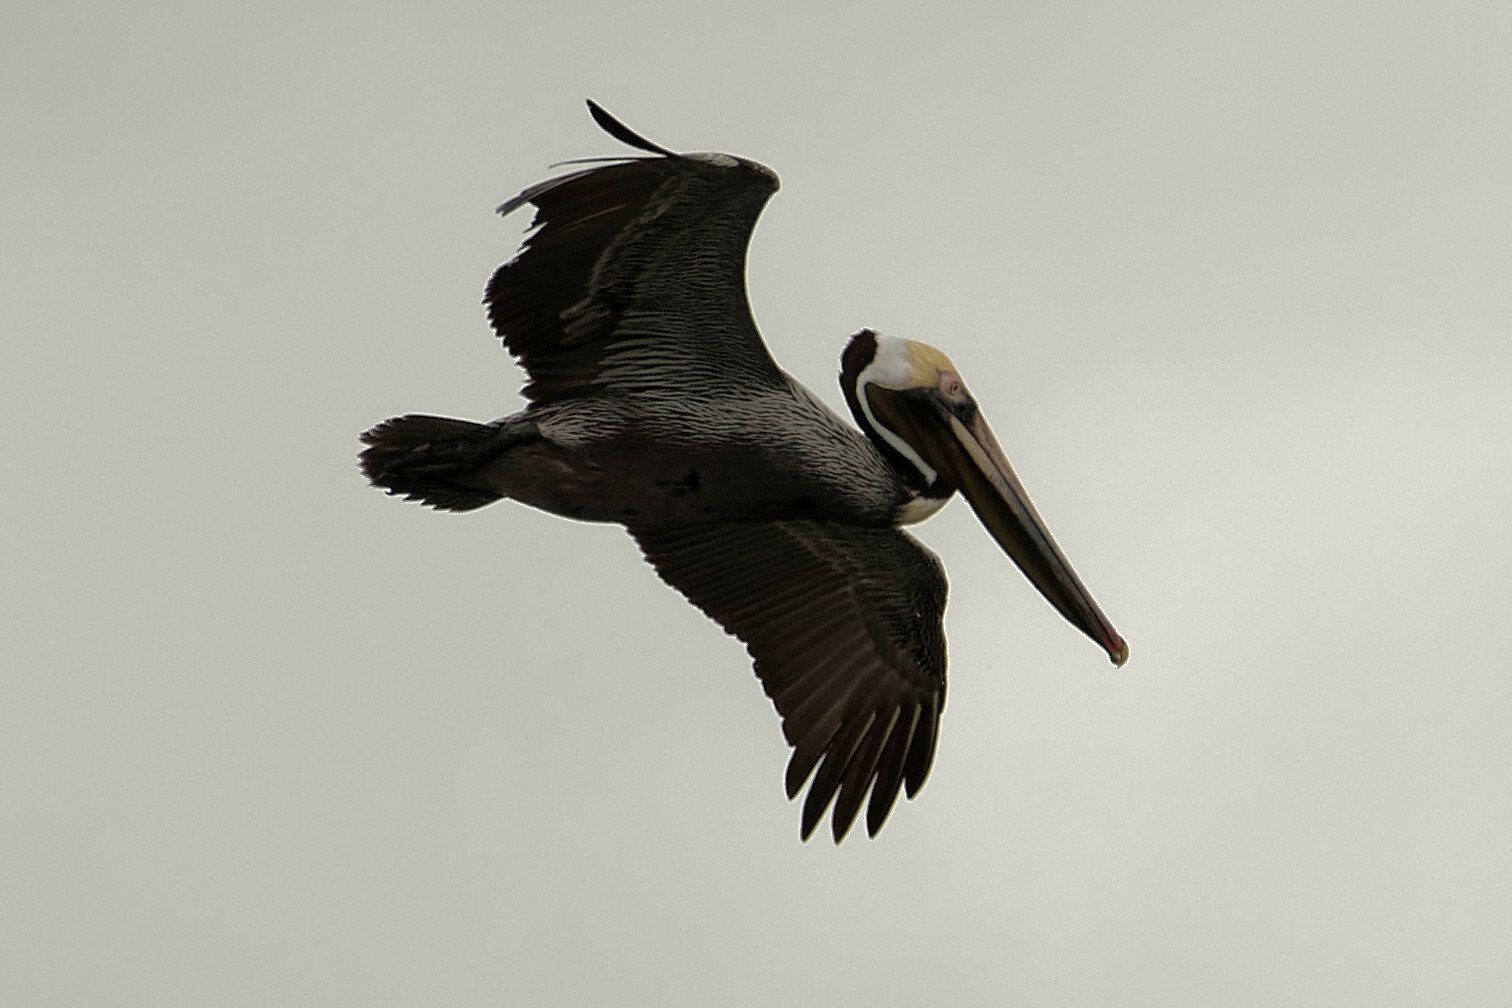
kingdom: Animalia
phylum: Chordata
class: Aves
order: Pelecaniformes
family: Pelecanidae
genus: Pelecanus
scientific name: Pelecanus occidentalis
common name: Brown pelican
